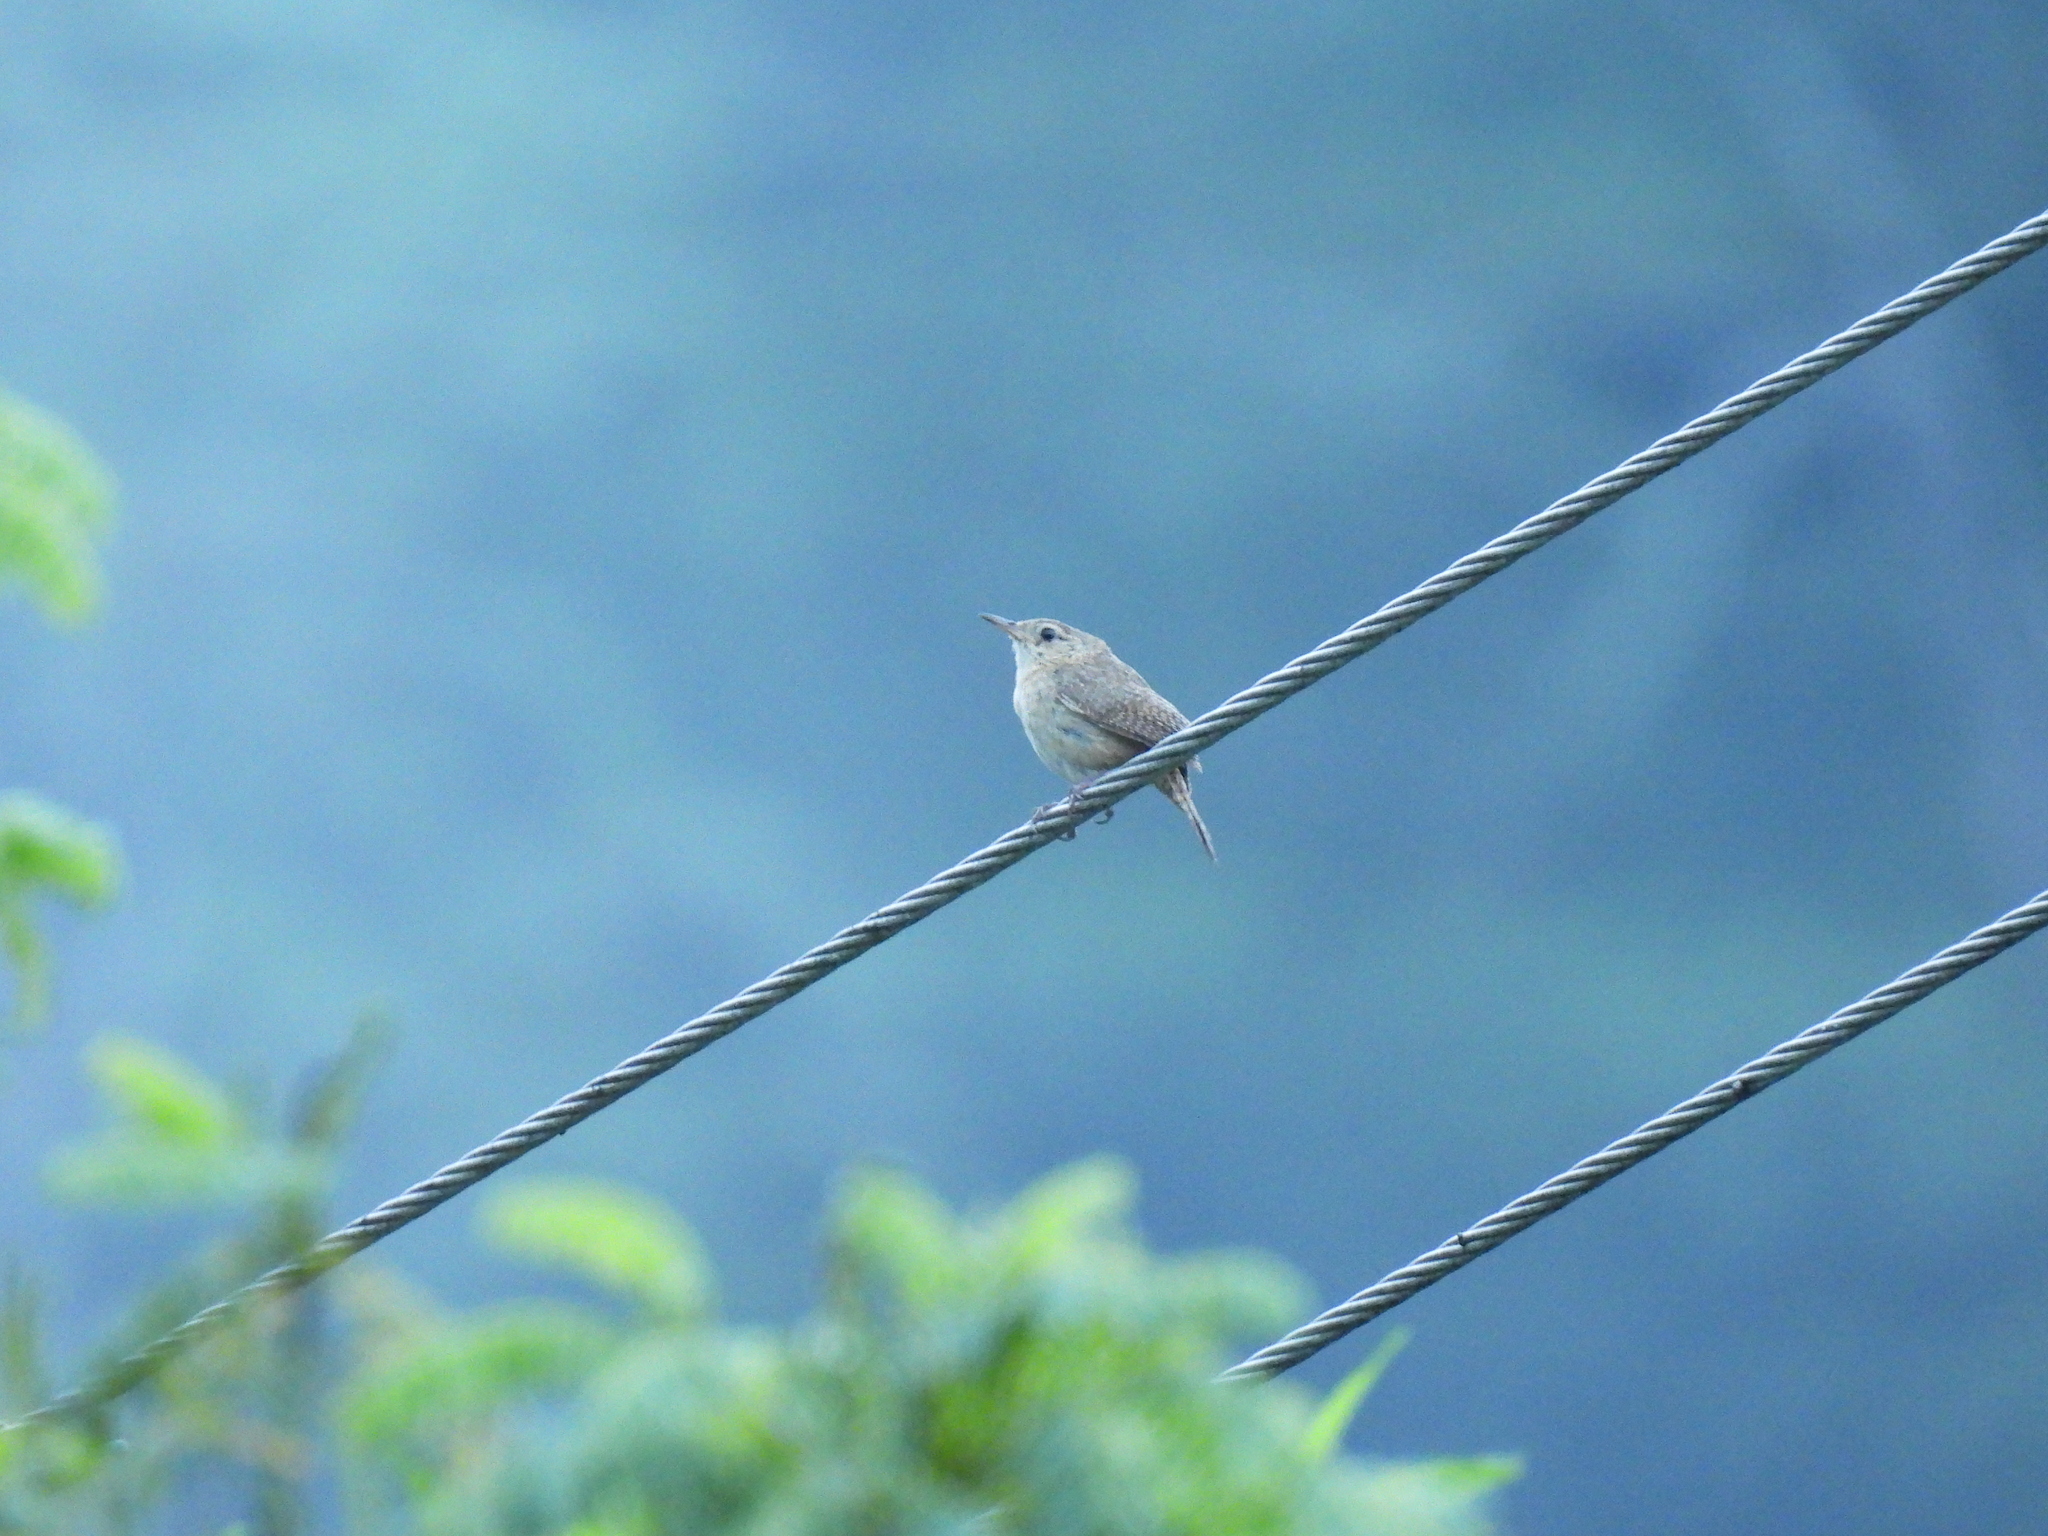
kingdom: Animalia
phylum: Chordata
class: Aves
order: Passeriformes
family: Troglodytidae
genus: Troglodytes
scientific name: Troglodytes aedon
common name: House wren
